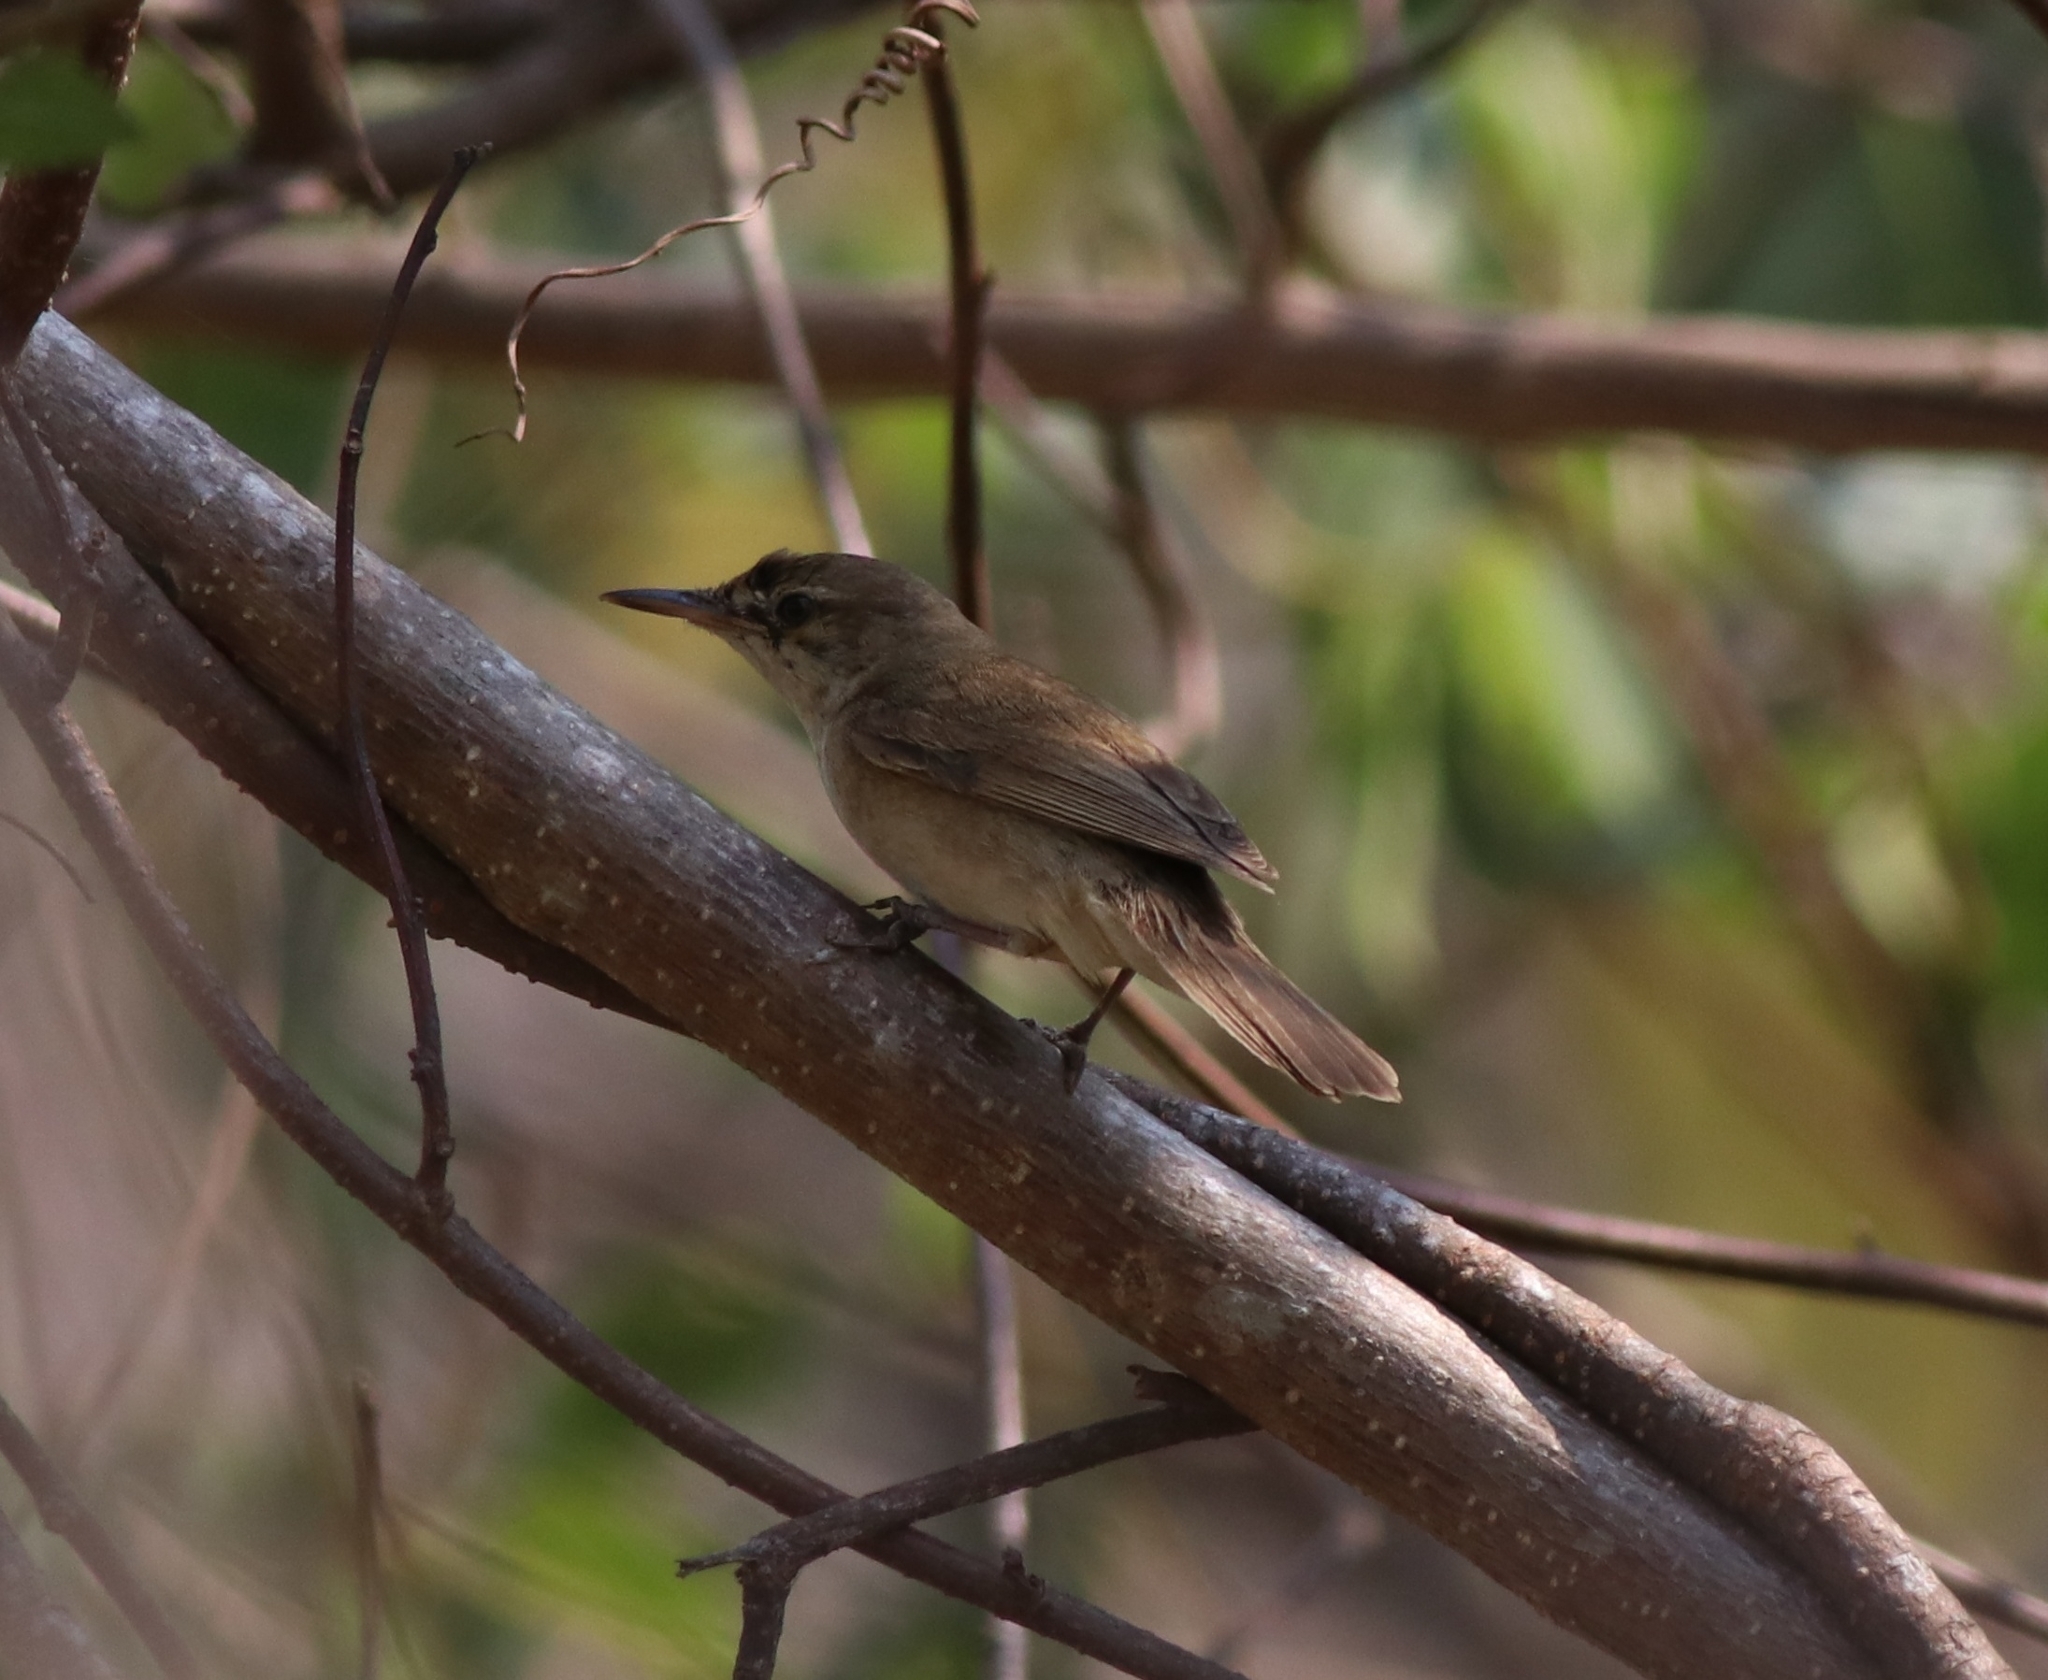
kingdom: Animalia
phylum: Chordata
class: Aves
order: Passeriformes
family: Acrocephalidae
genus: Acrocephalus
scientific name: Acrocephalus dumetorum
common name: Blyth's reed warbler
